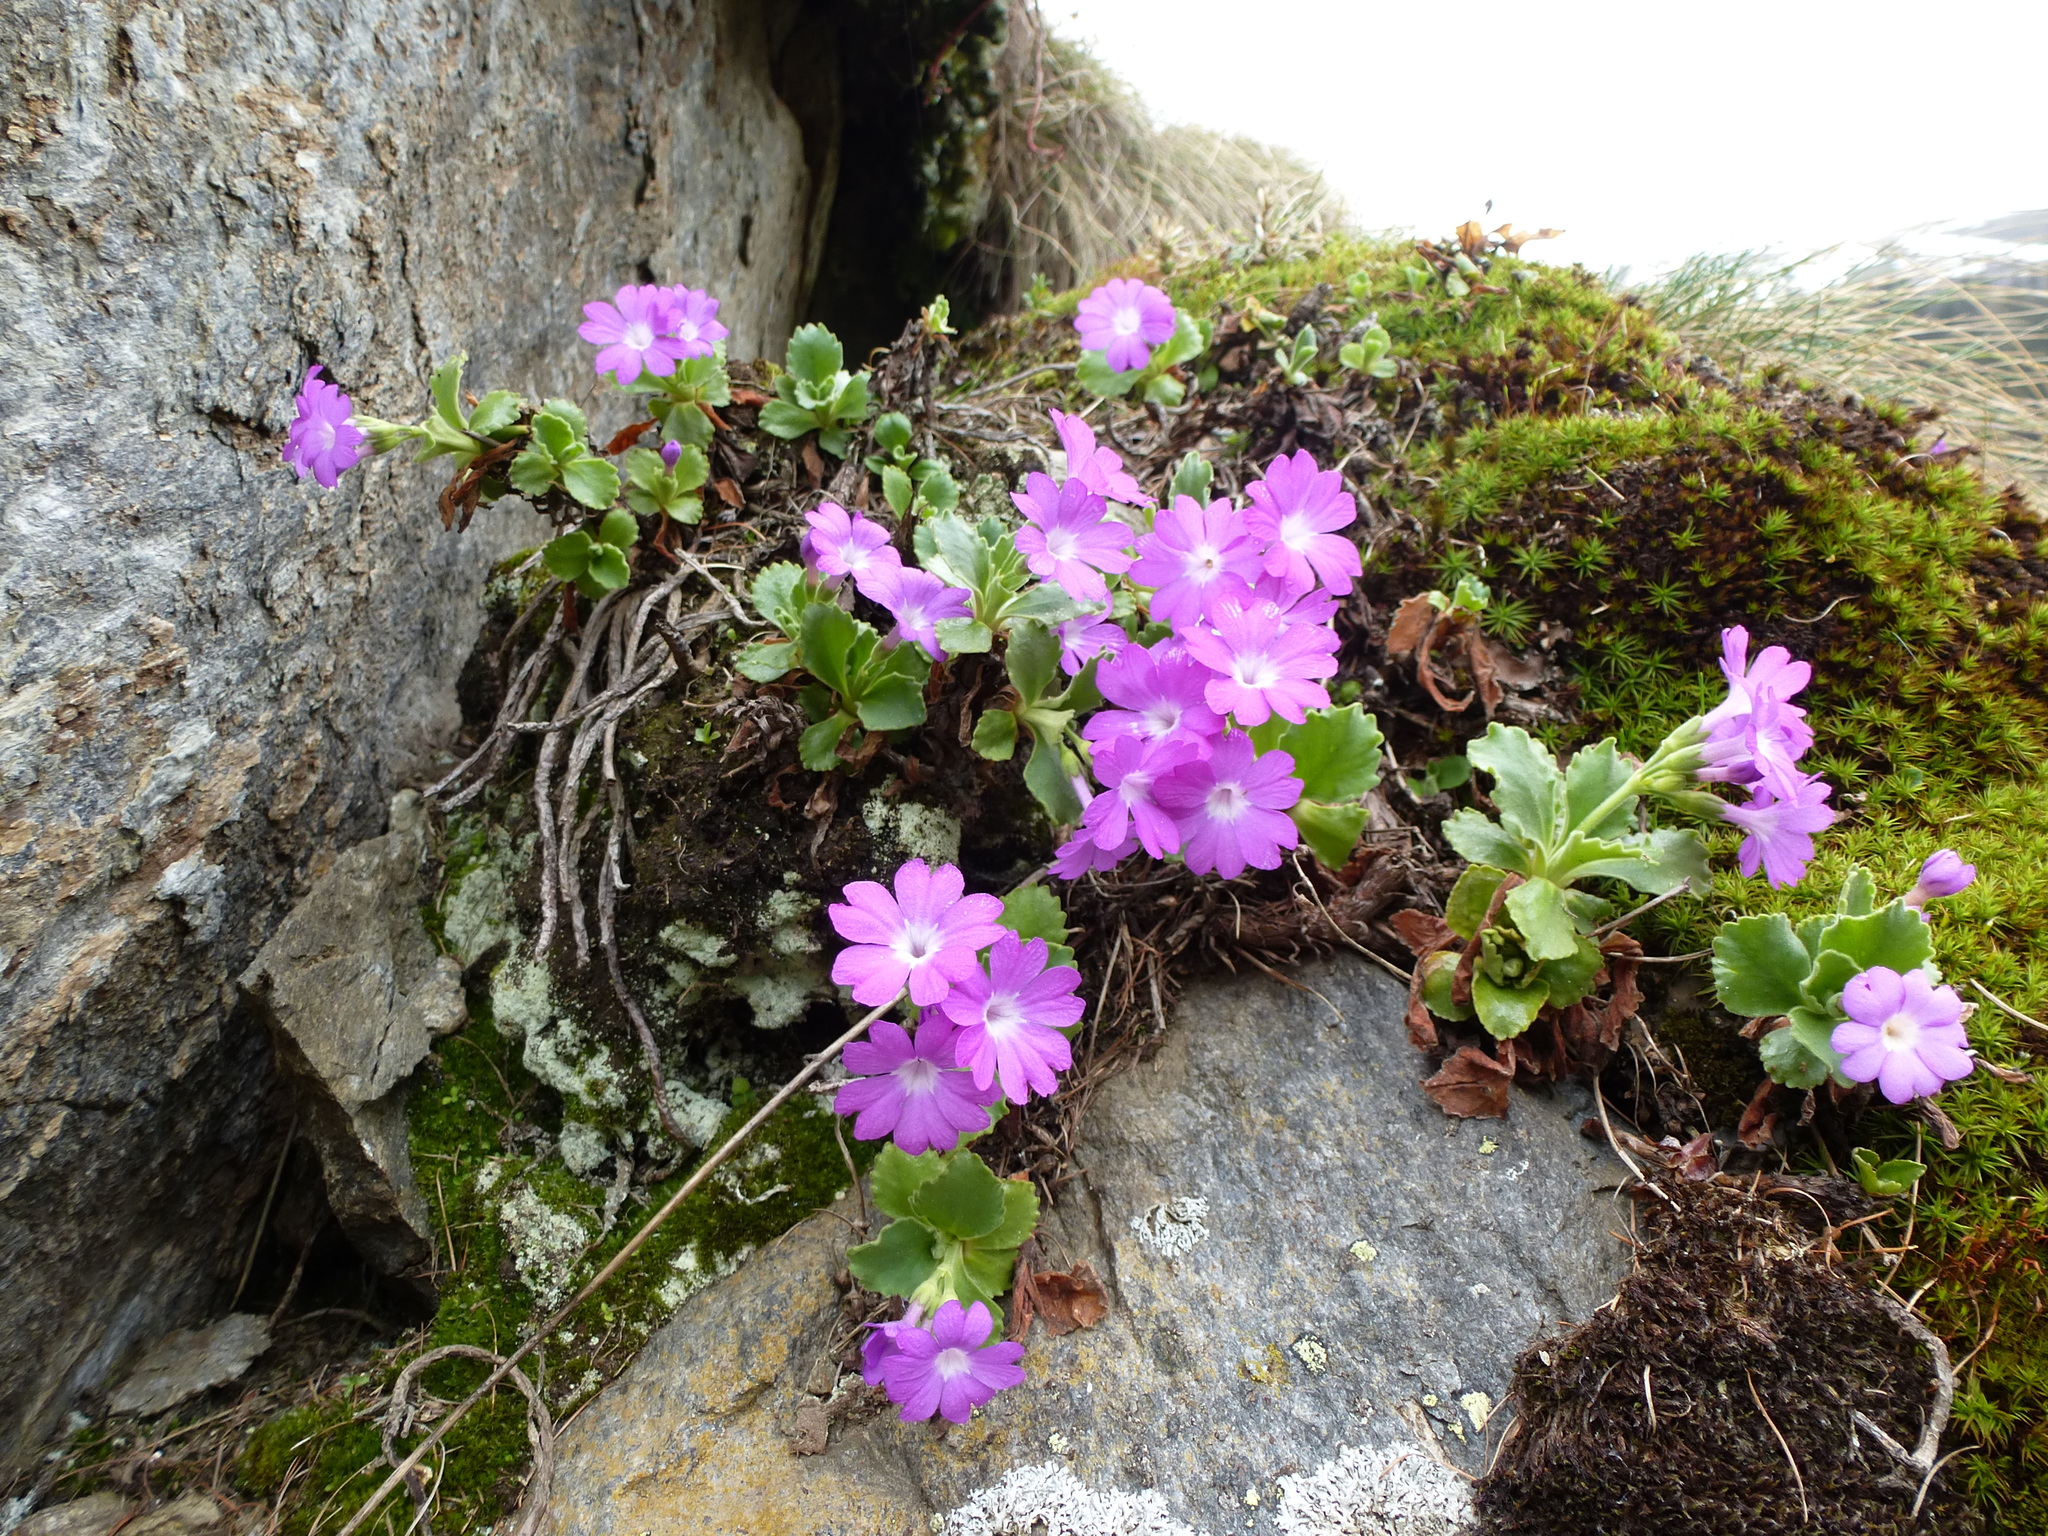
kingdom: Plantae
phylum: Tracheophyta
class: Magnoliopsida
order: Ericales
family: Primulaceae
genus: Primula
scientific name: Primula hirsuta
